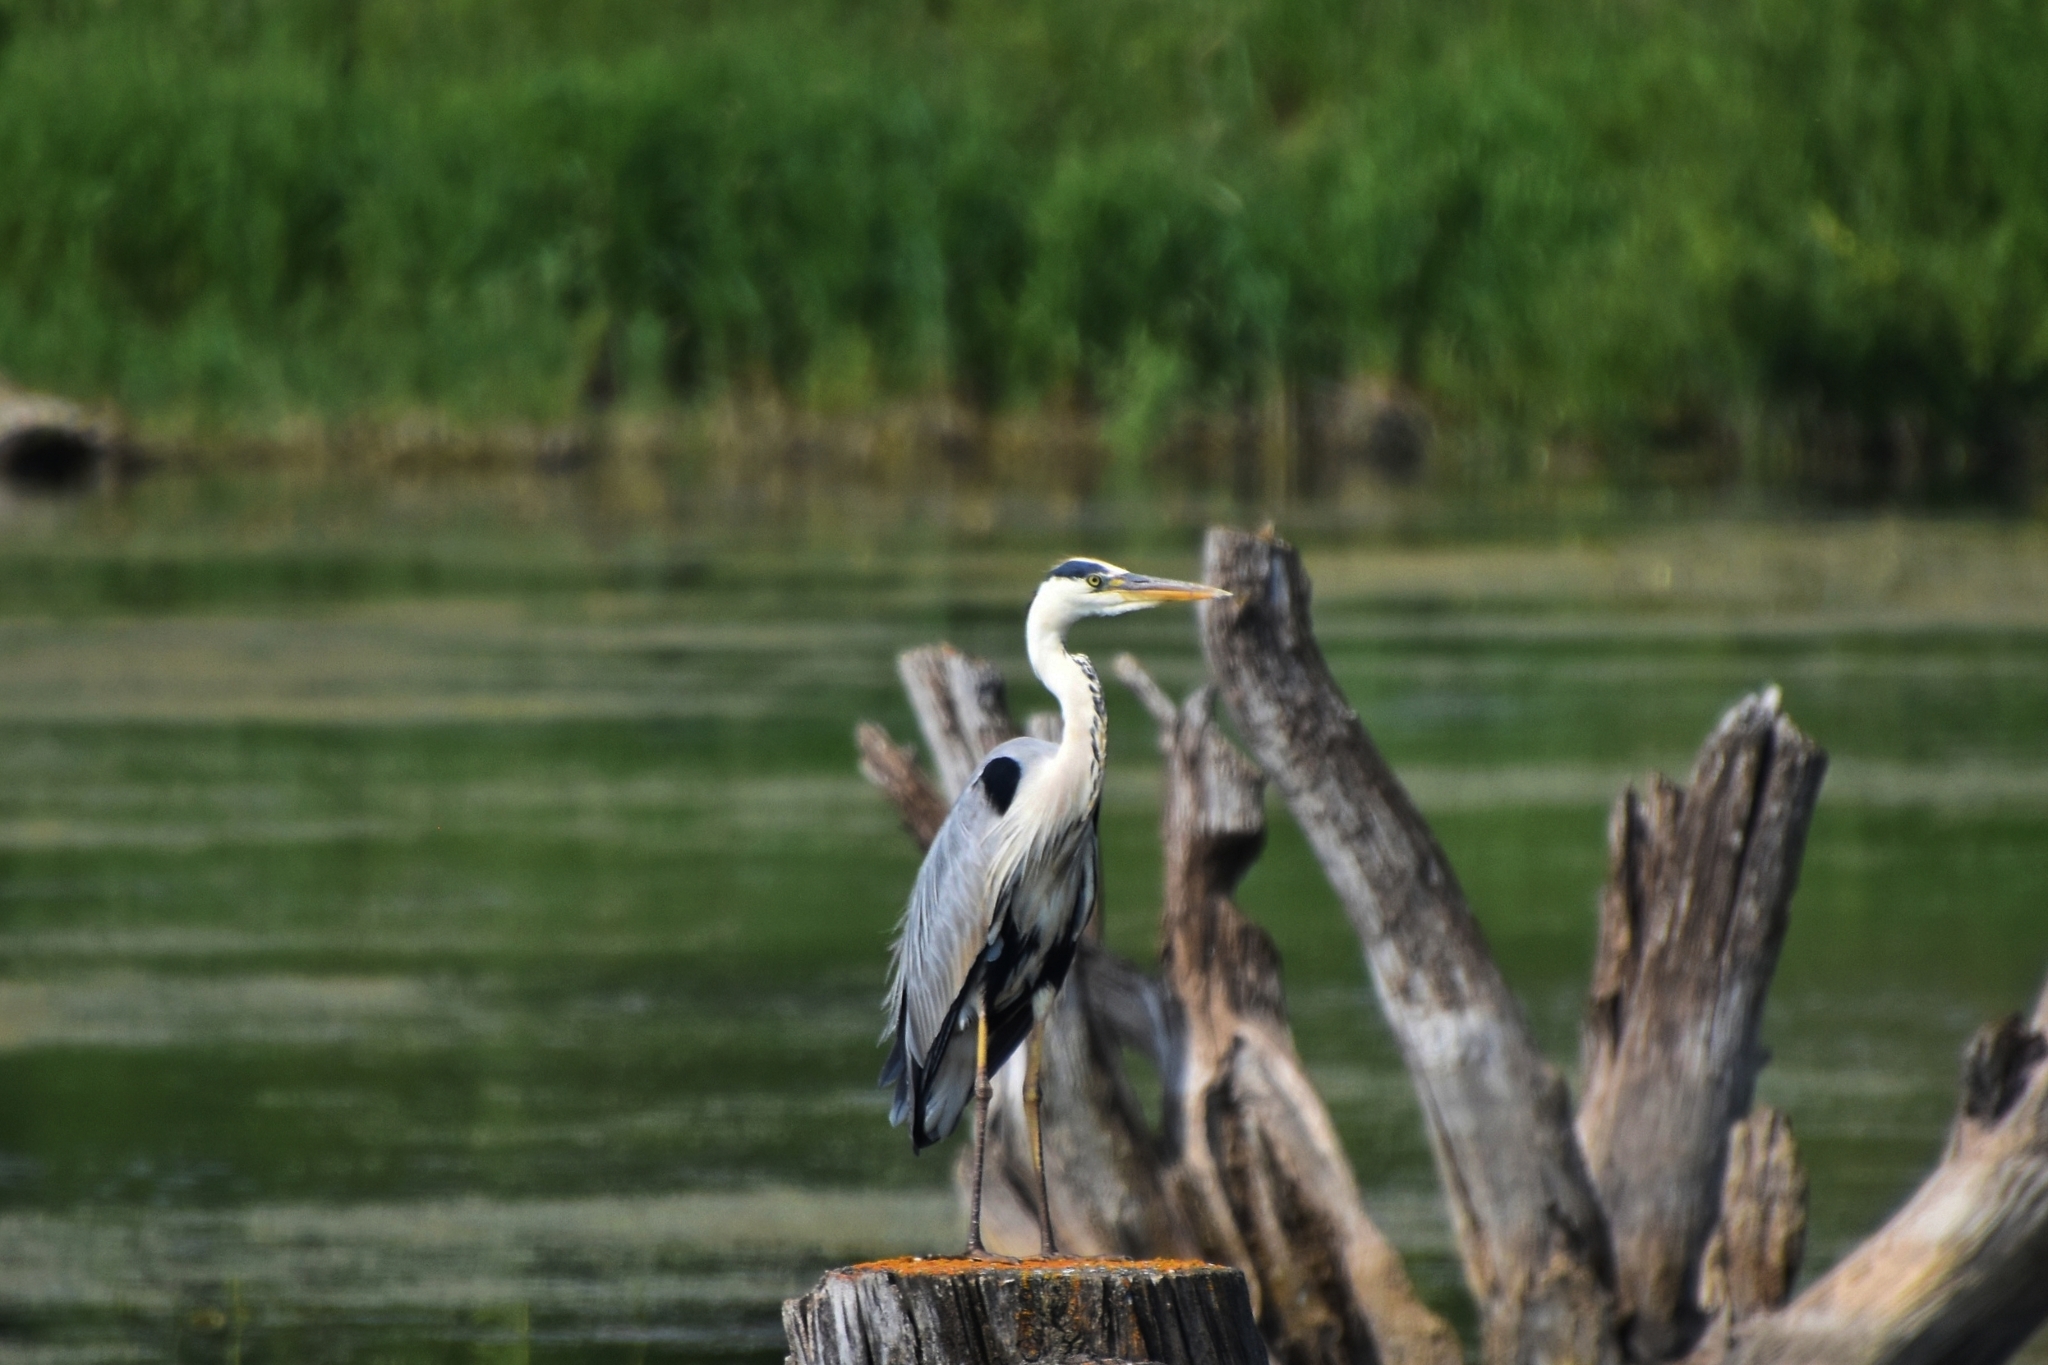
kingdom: Animalia
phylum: Chordata
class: Aves
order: Pelecaniformes
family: Ardeidae
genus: Ardea
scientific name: Ardea cinerea
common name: Grey heron
